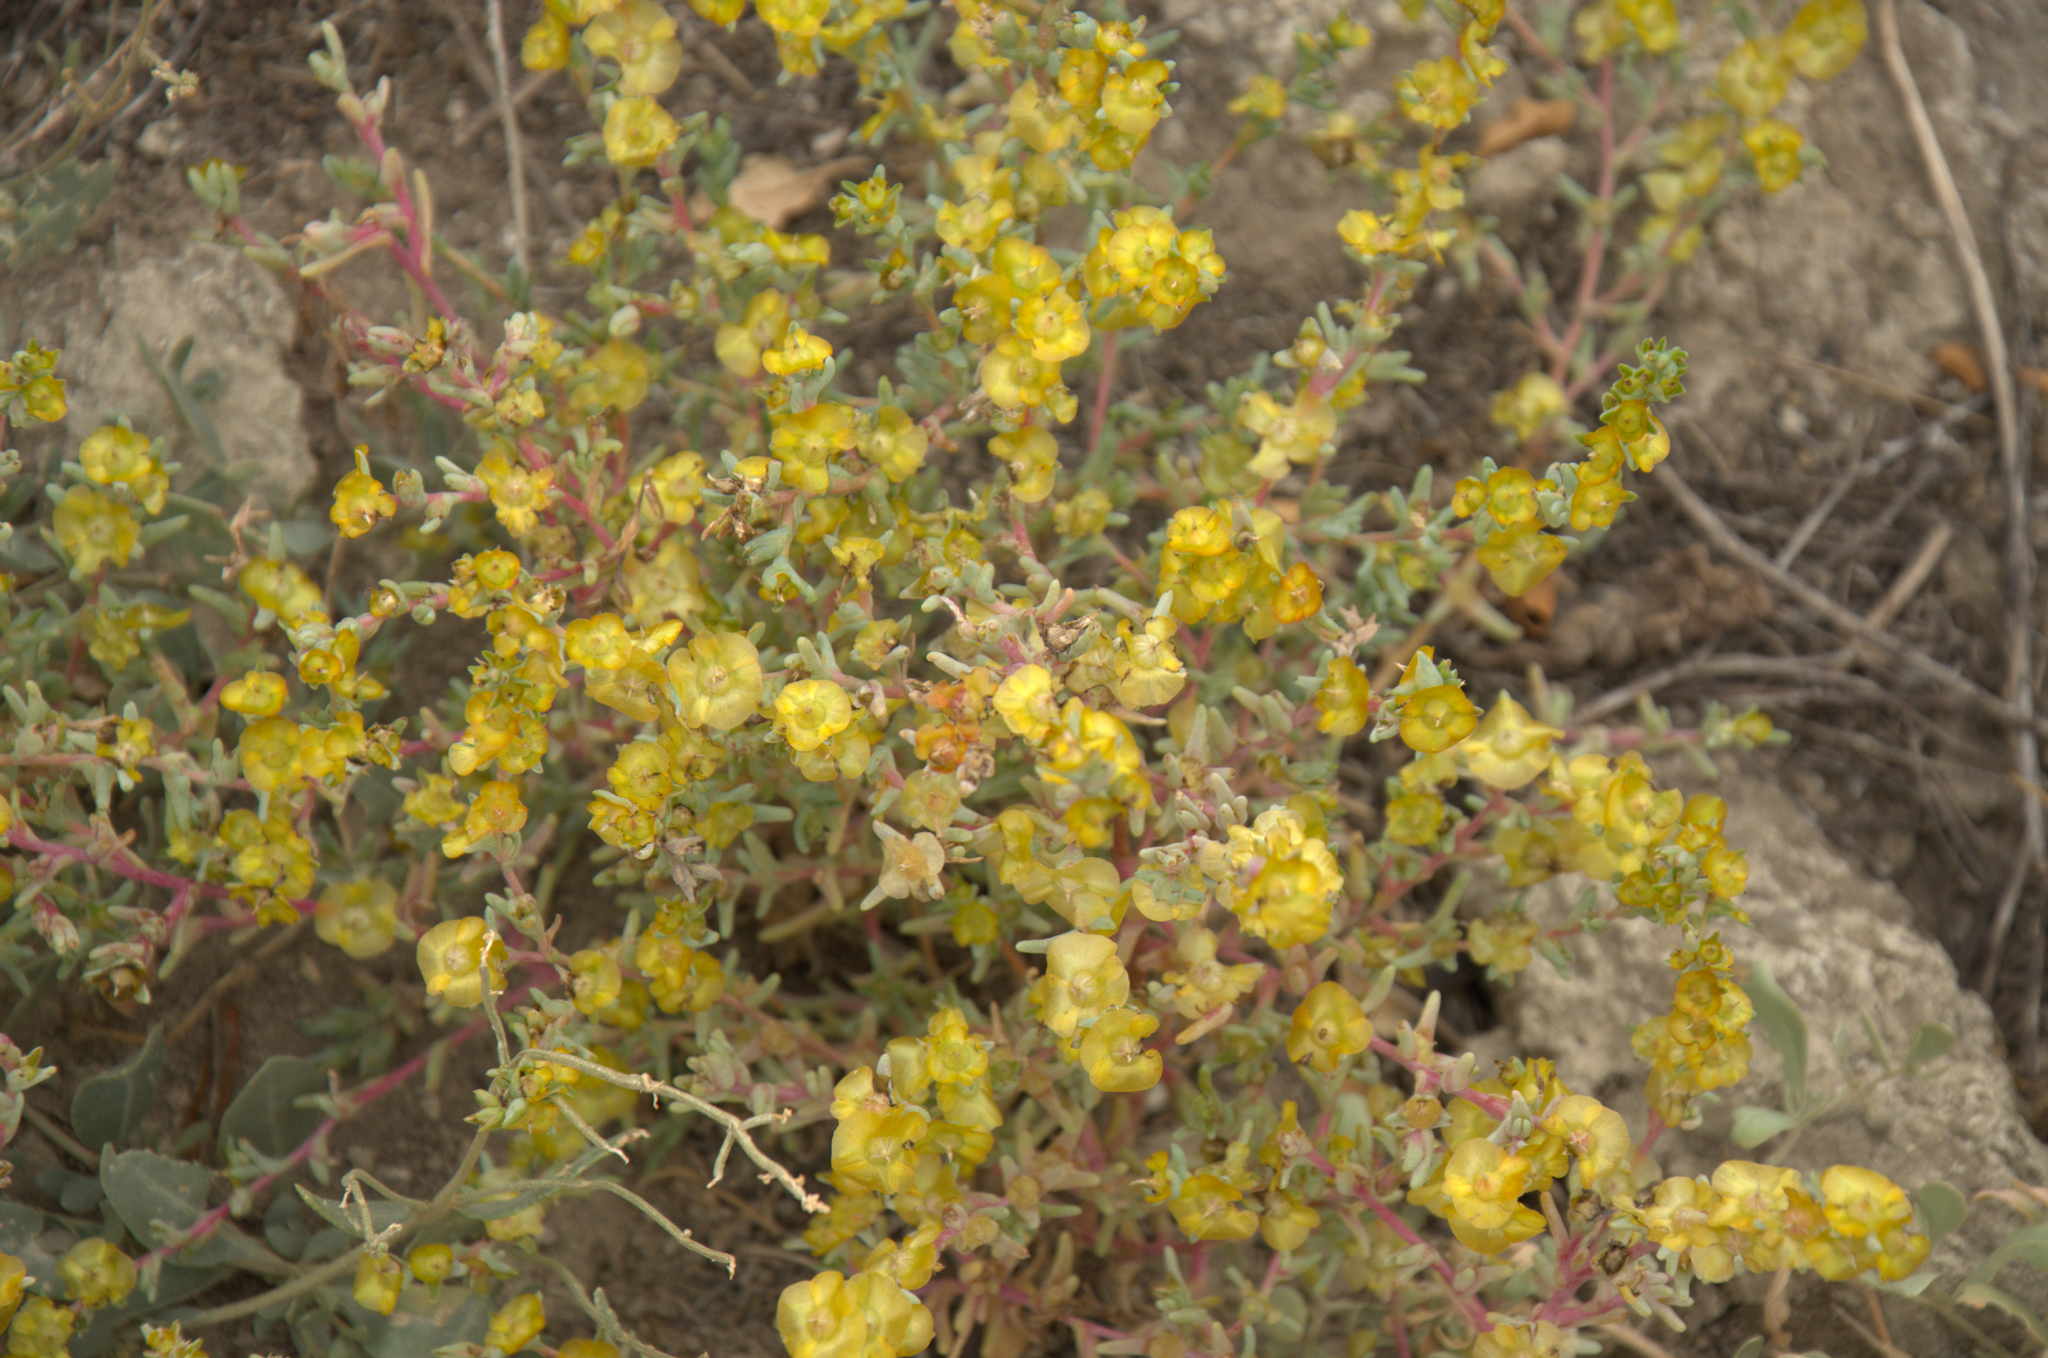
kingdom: Plantae
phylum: Tracheophyta
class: Magnoliopsida
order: Caryophyllales
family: Amaranthaceae
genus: Climacoptera
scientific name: Climacoptera crassa
